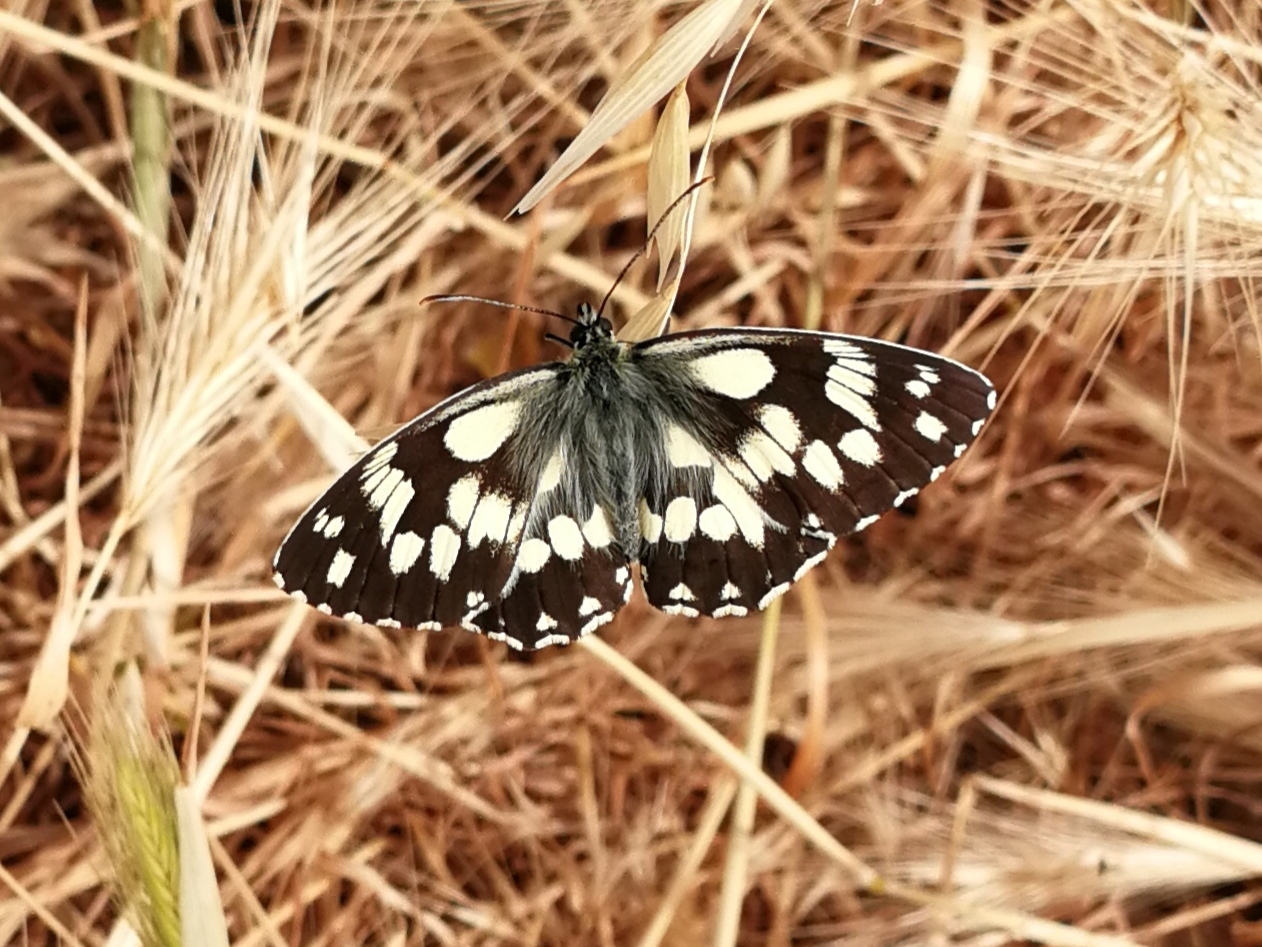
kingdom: Animalia
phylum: Arthropoda
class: Insecta
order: Lepidoptera
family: Nymphalidae
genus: Melanargia
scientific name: Melanargia galathea
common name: Marbled white
